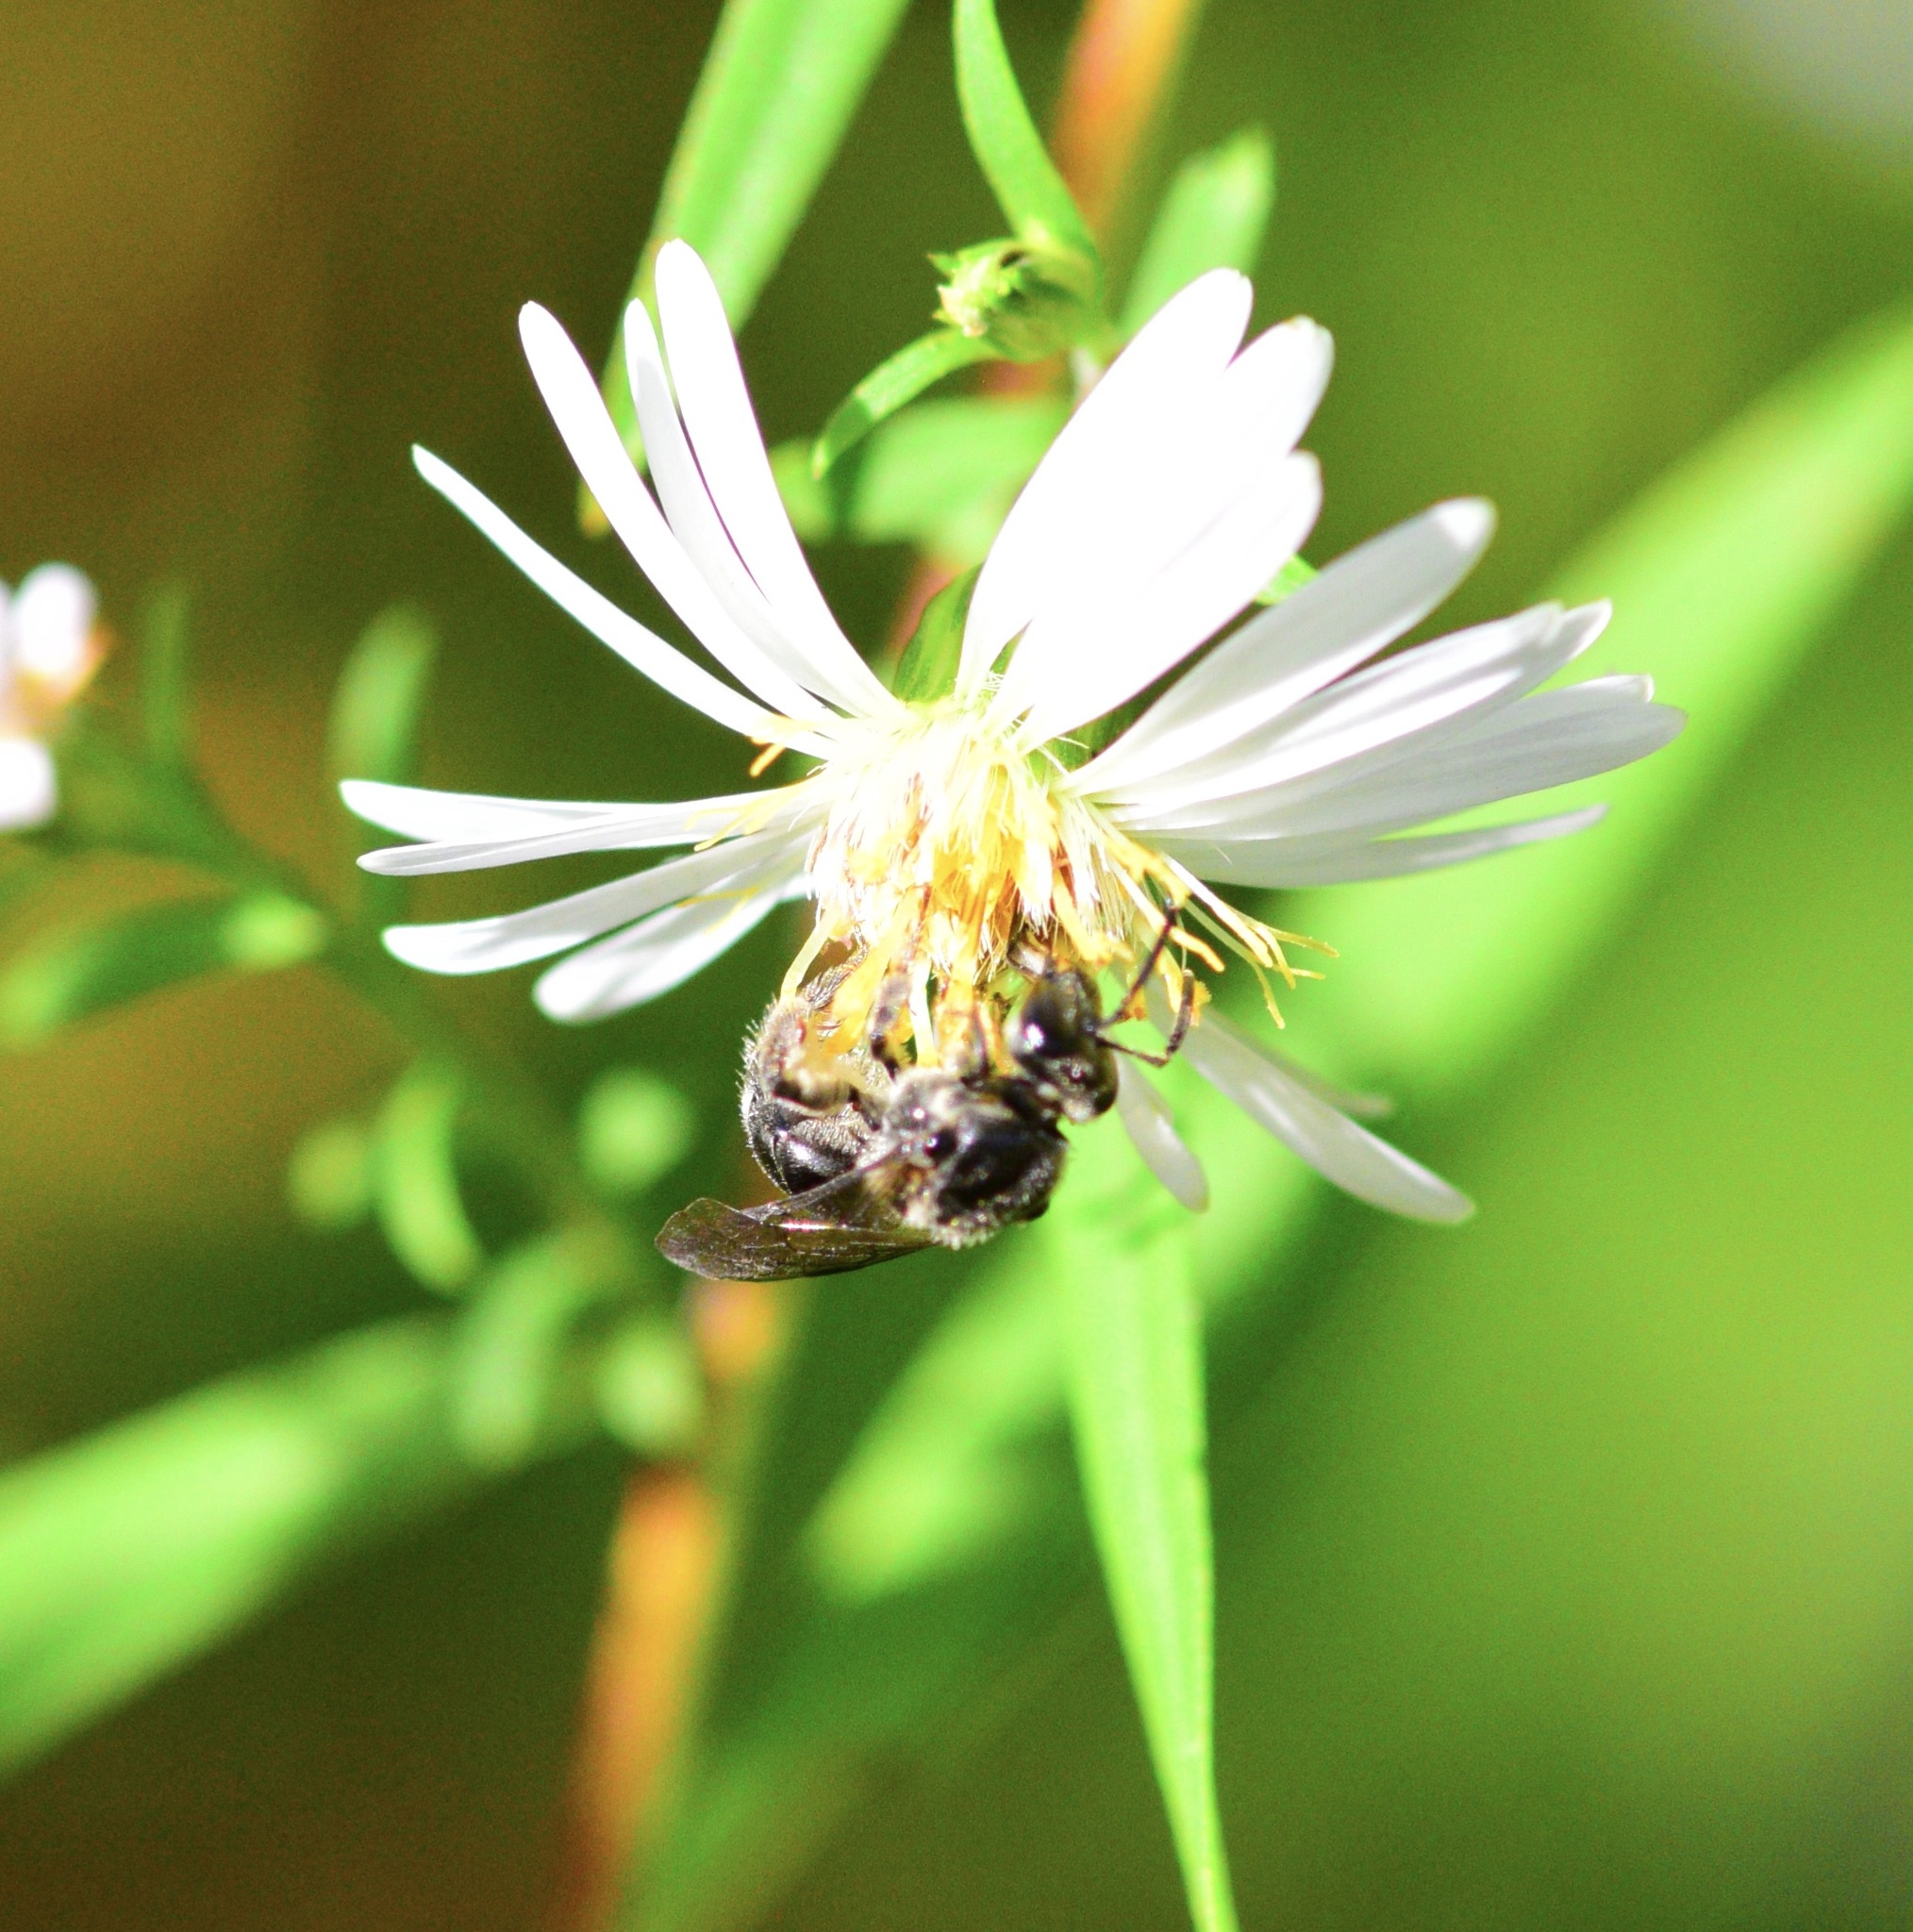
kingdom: Animalia
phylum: Arthropoda
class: Insecta
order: Hymenoptera
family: Halictidae
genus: Lasioglossum
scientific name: Lasioglossum pectinatum
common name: Ground cherry sweat bee
